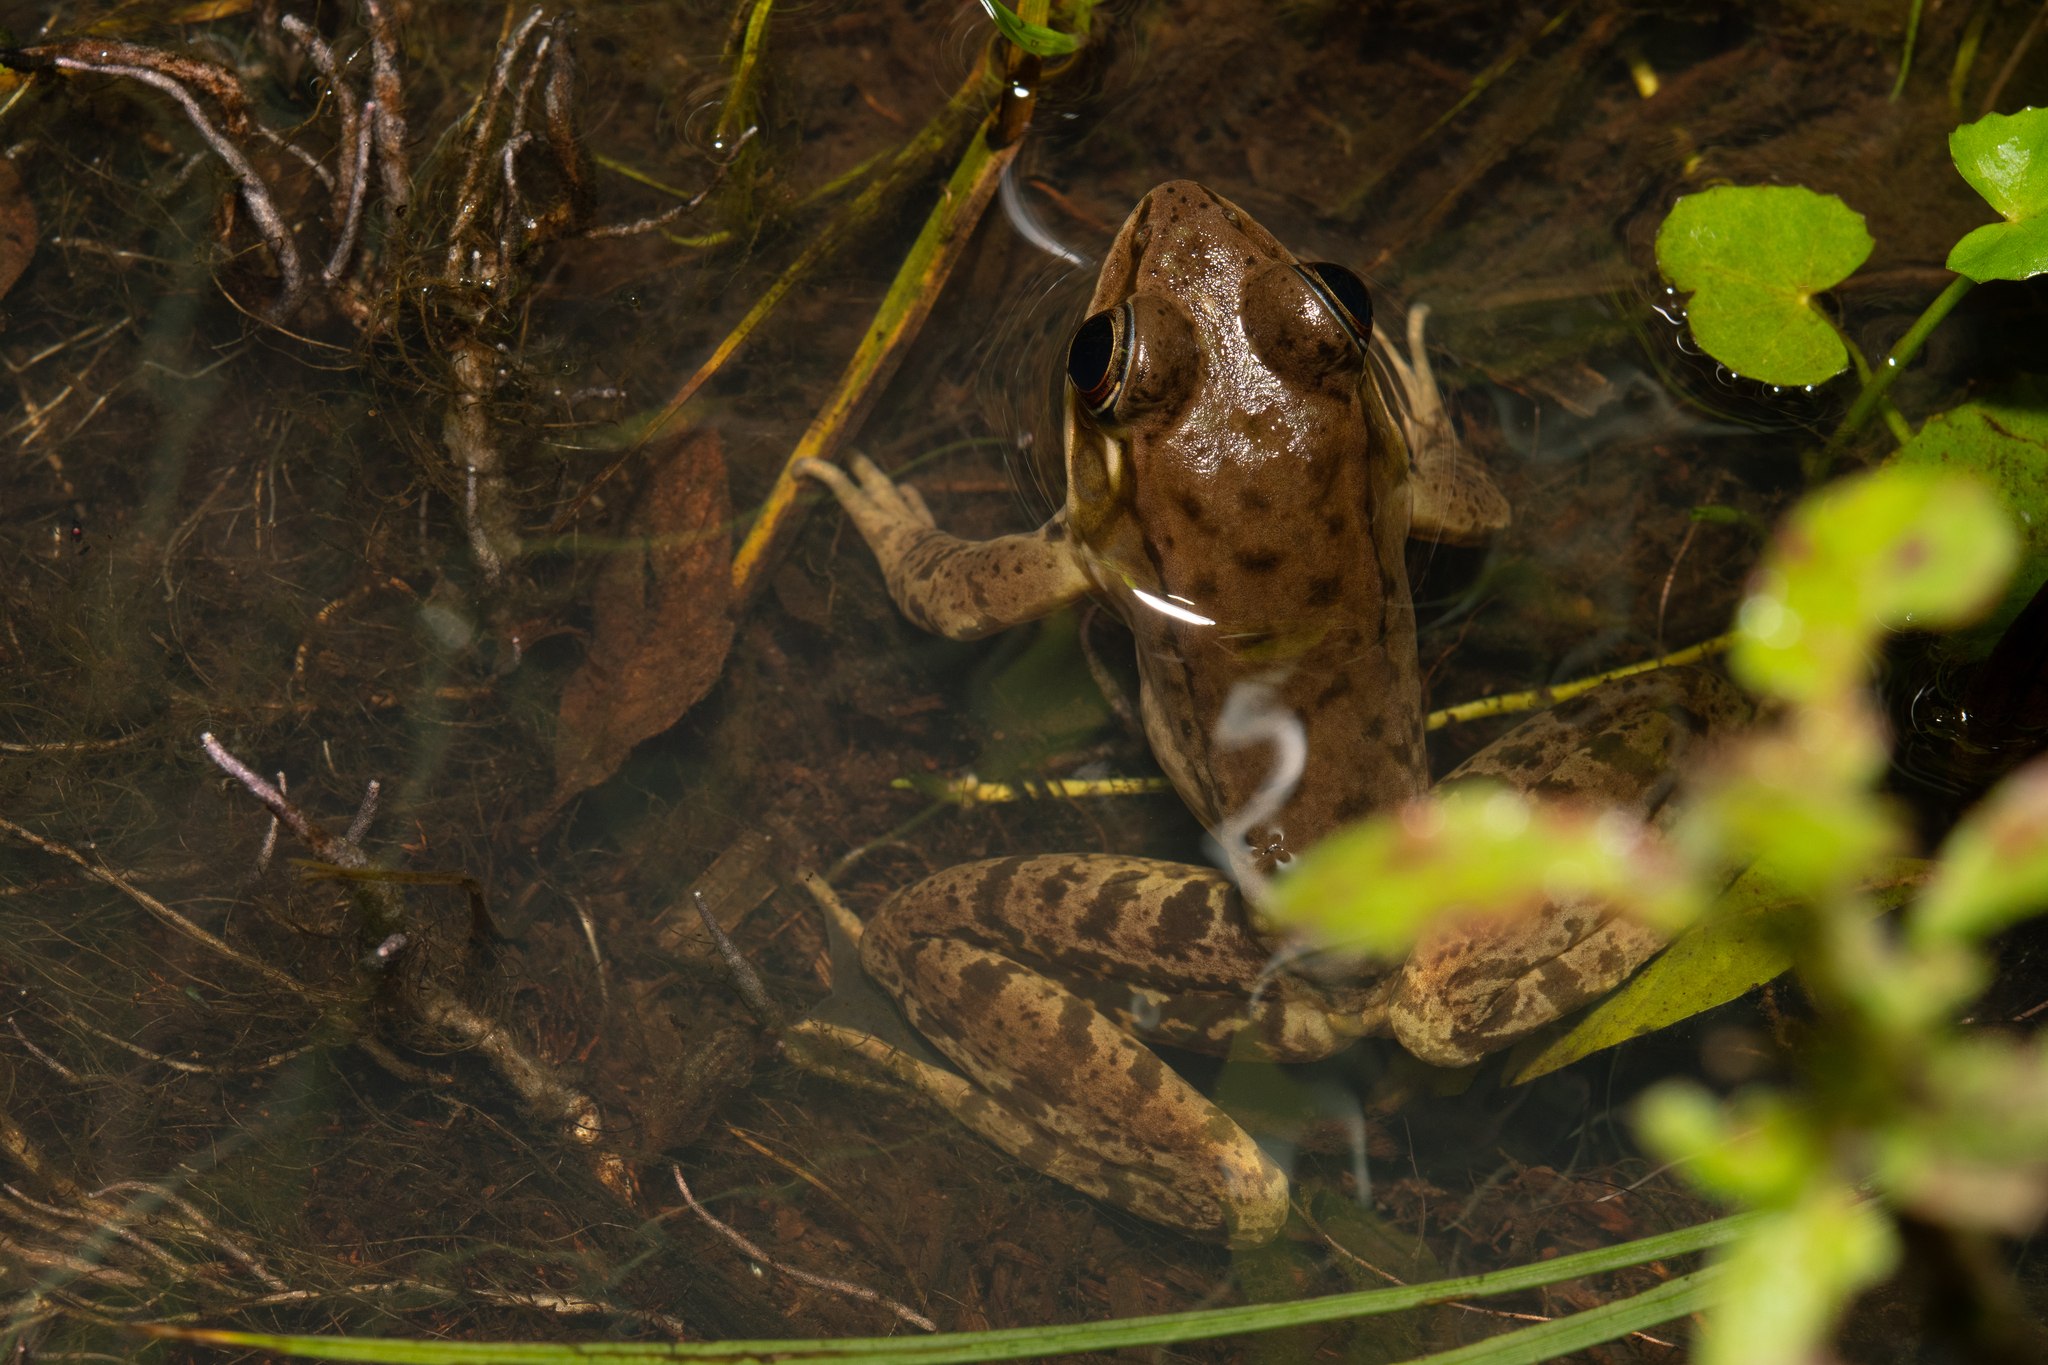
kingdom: Animalia
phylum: Chordata
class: Amphibia
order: Anura
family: Ranidae
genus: Lithobates
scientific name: Lithobates maculatus
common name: Highland frog
